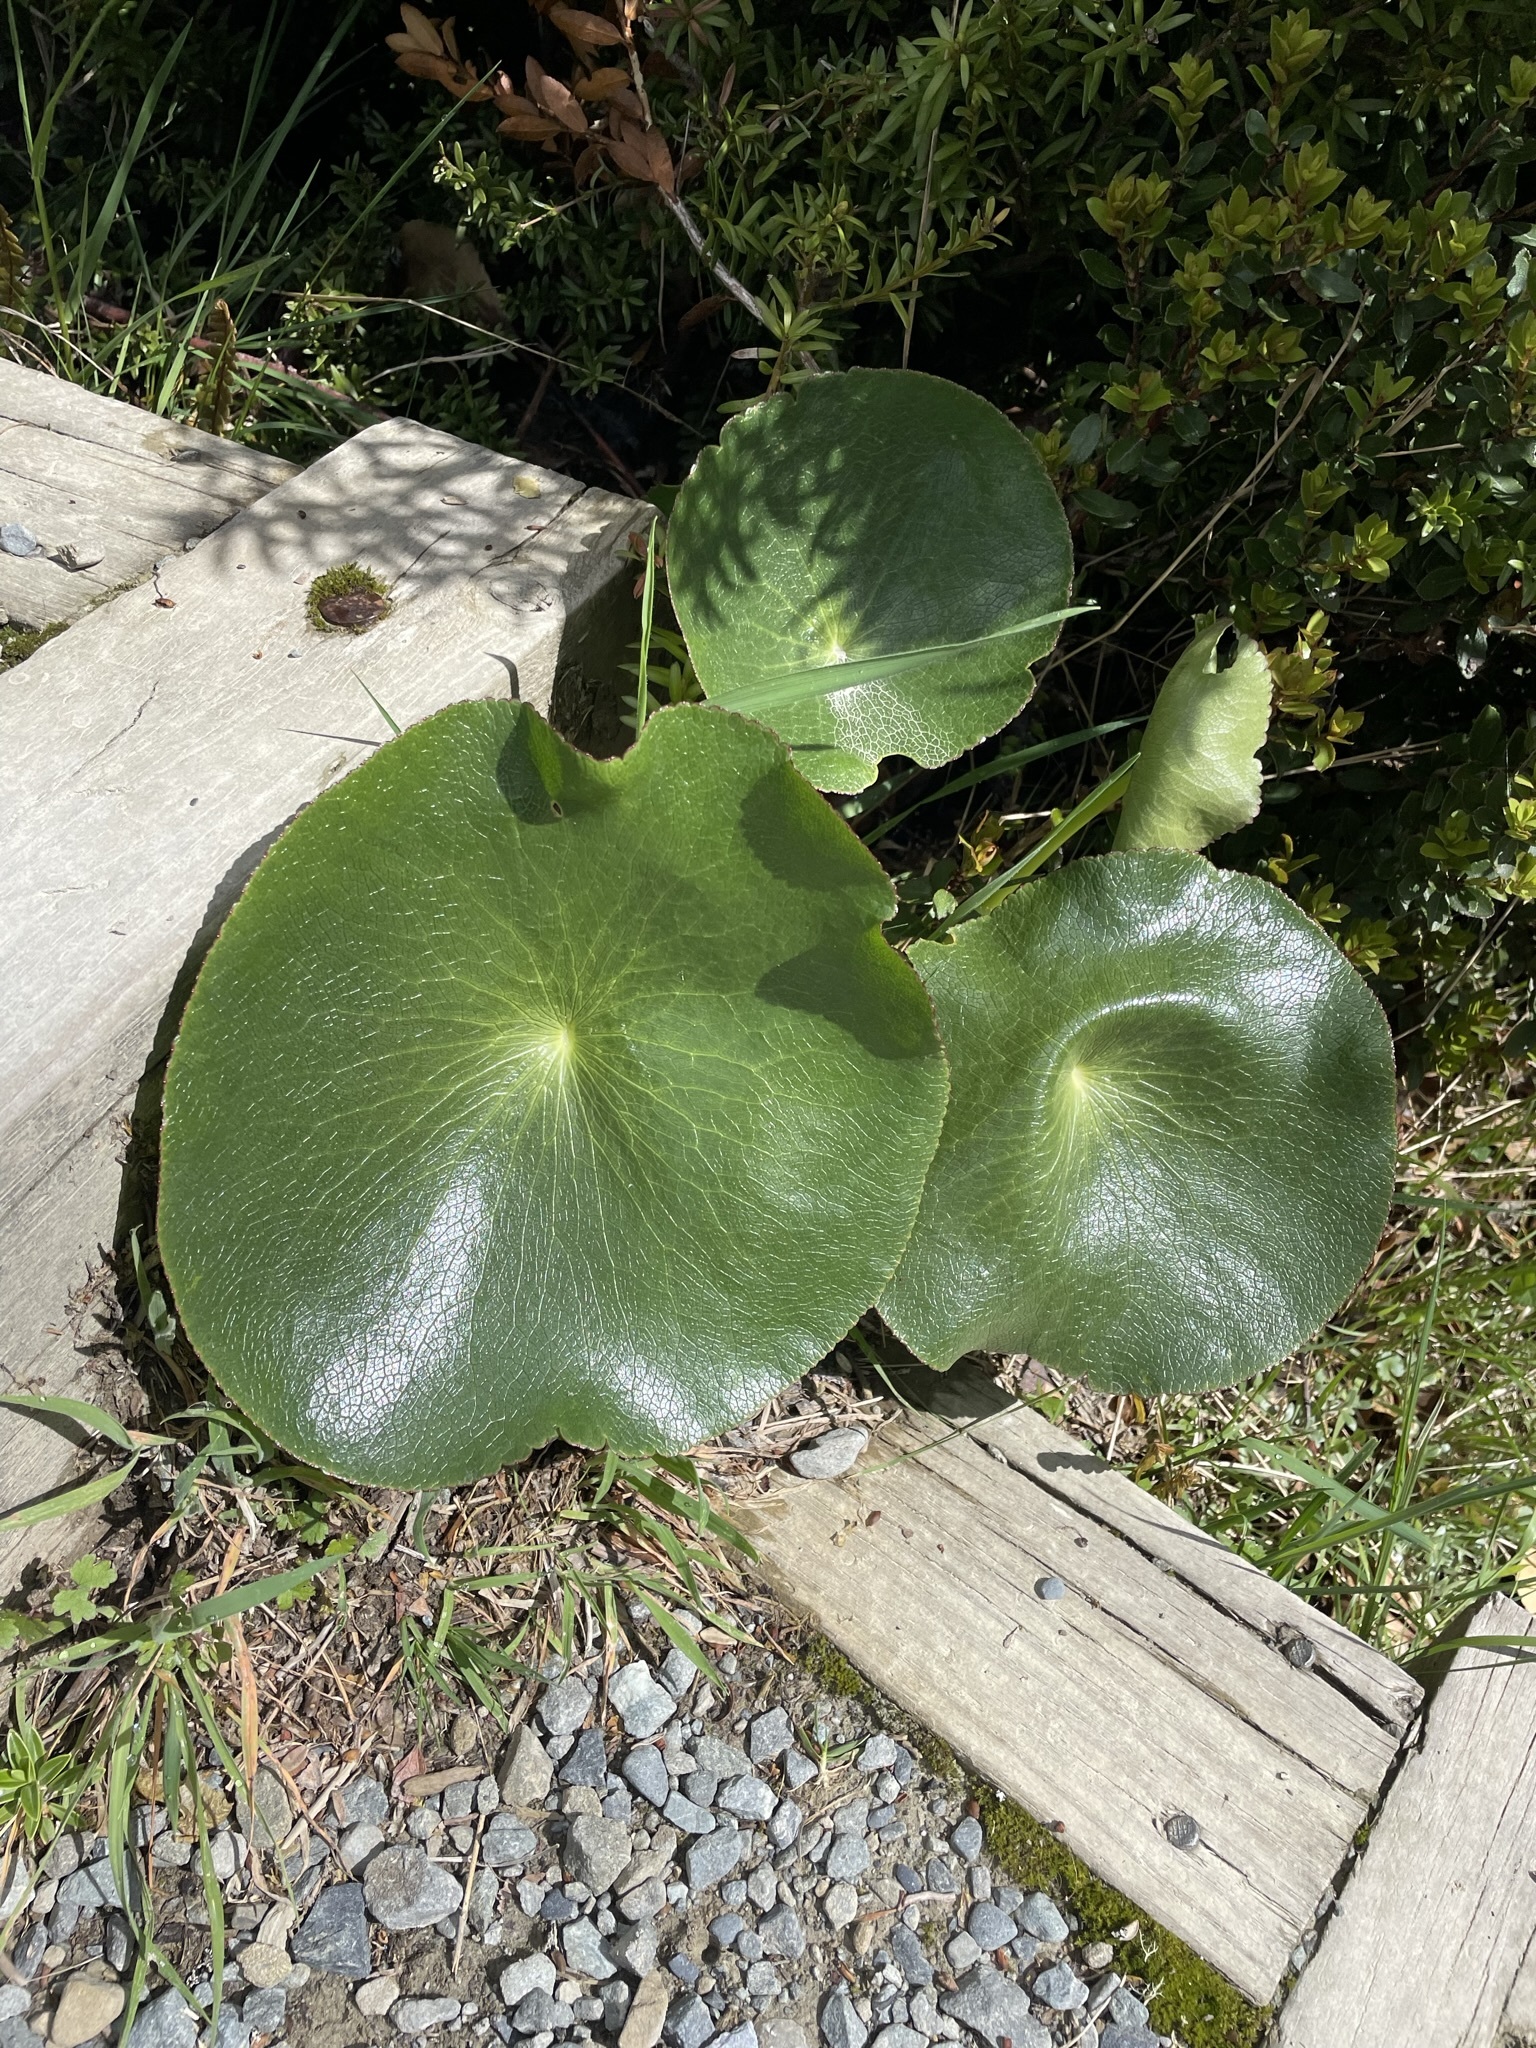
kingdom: Plantae
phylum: Tracheophyta
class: Magnoliopsida
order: Ranunculales
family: Ranunculaceae
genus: Ranunculus
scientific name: Ranunculus lyallii
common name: Mountain-lily
